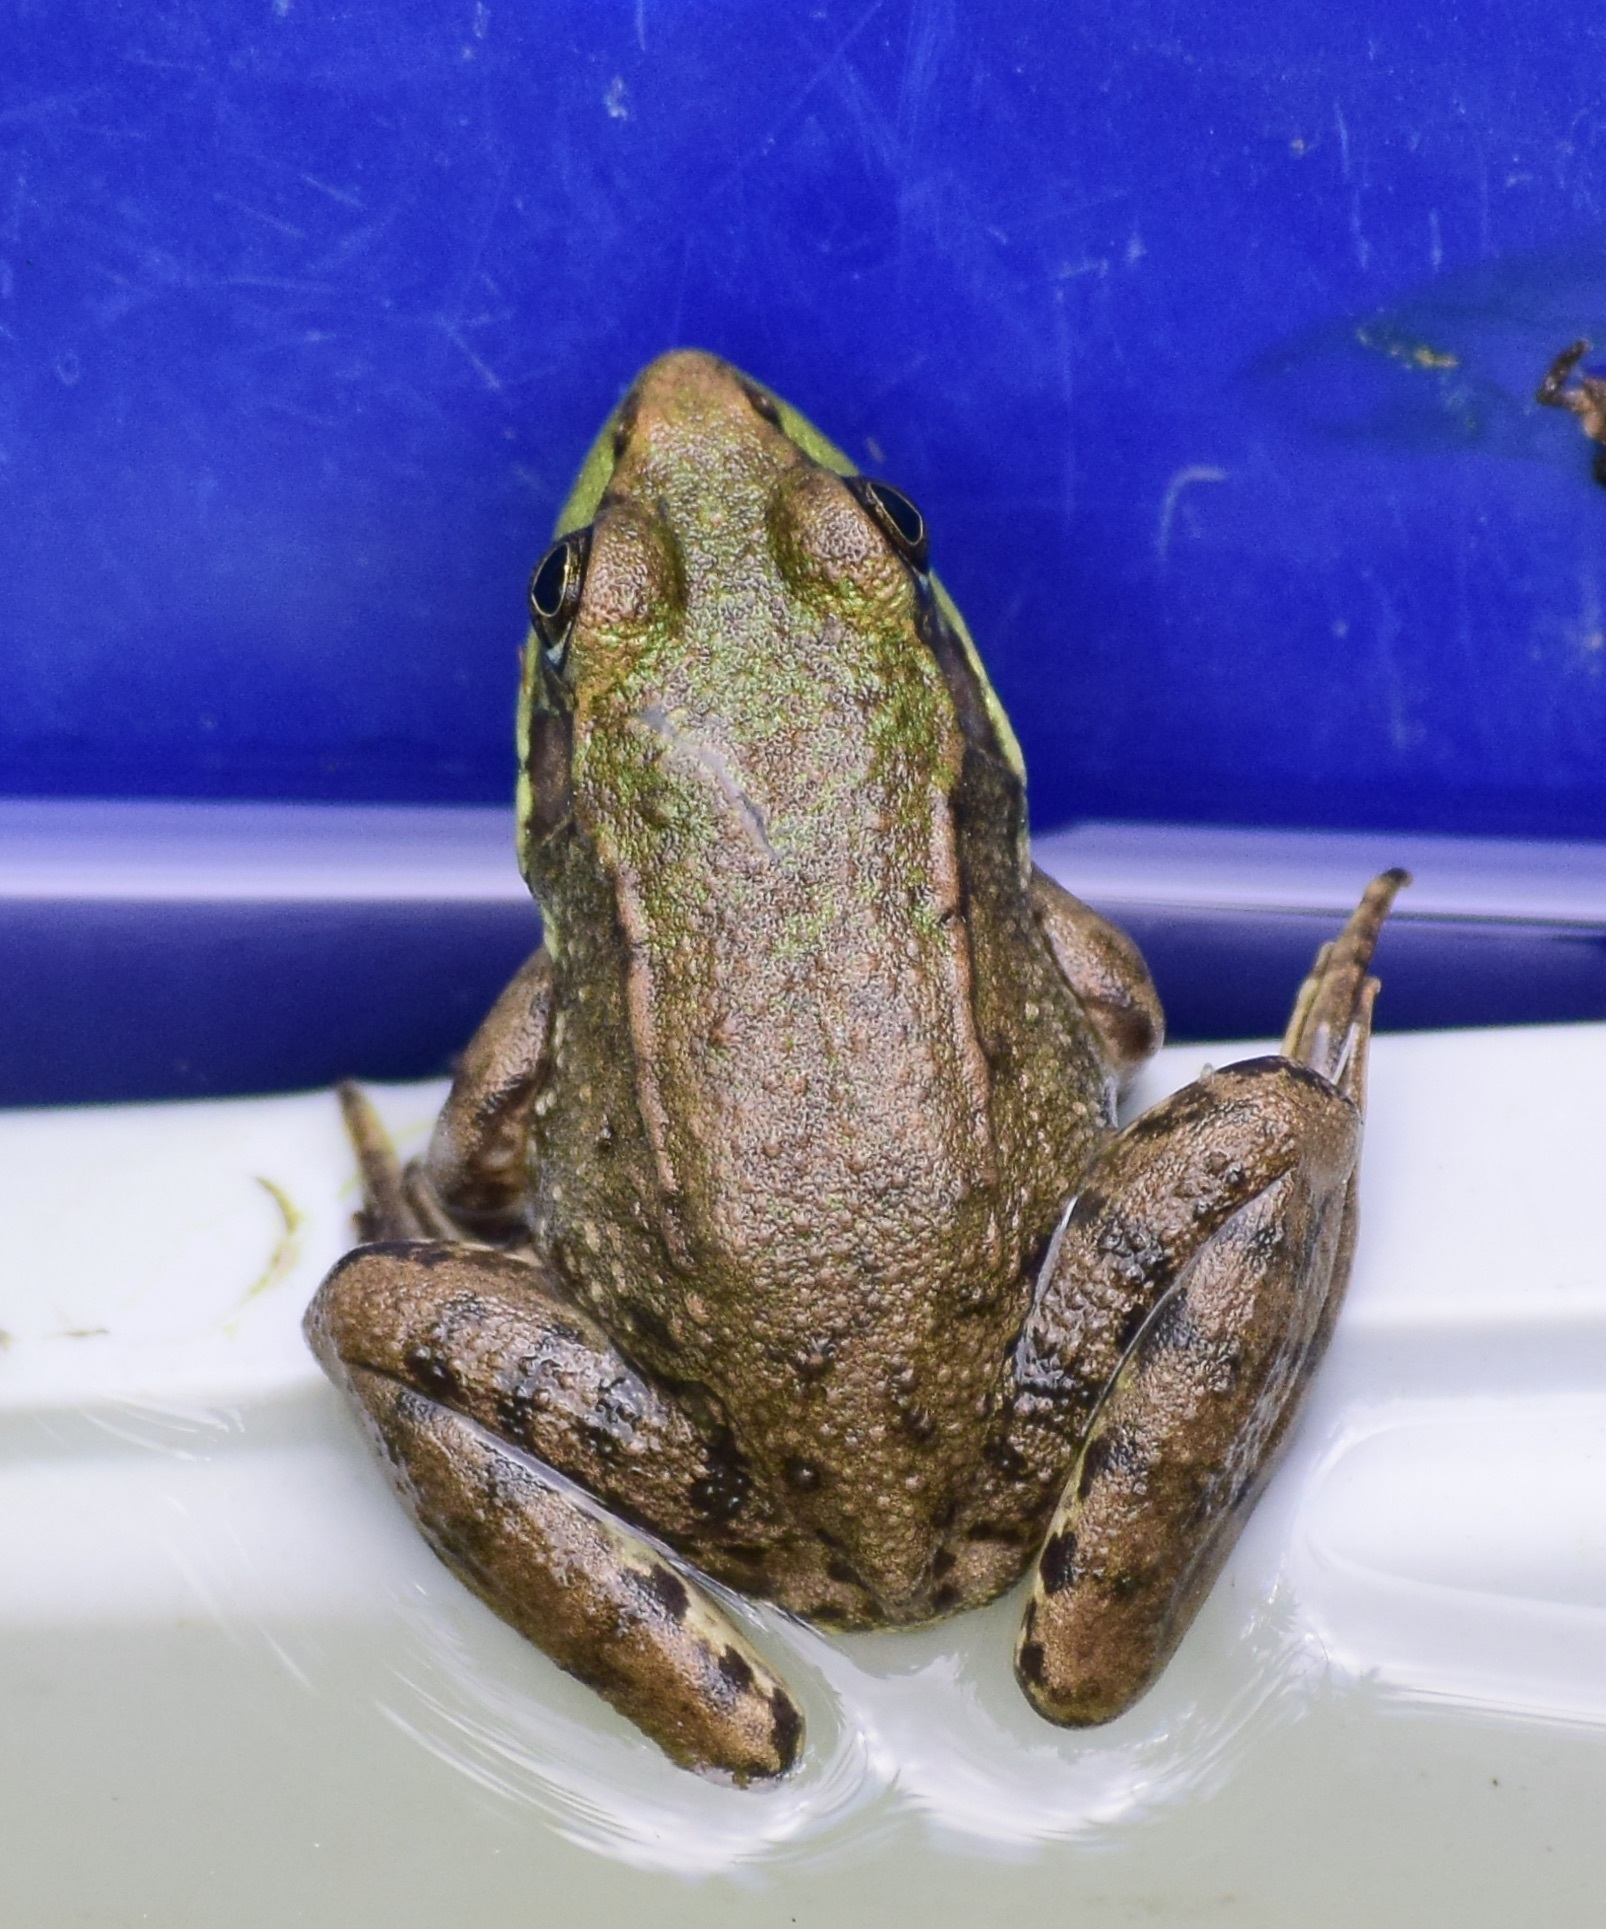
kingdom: Animalia
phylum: Chordata
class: Amphibia
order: Anura
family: Ranidae
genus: Lithobates
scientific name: Lithobates clamitans
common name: Green frog
